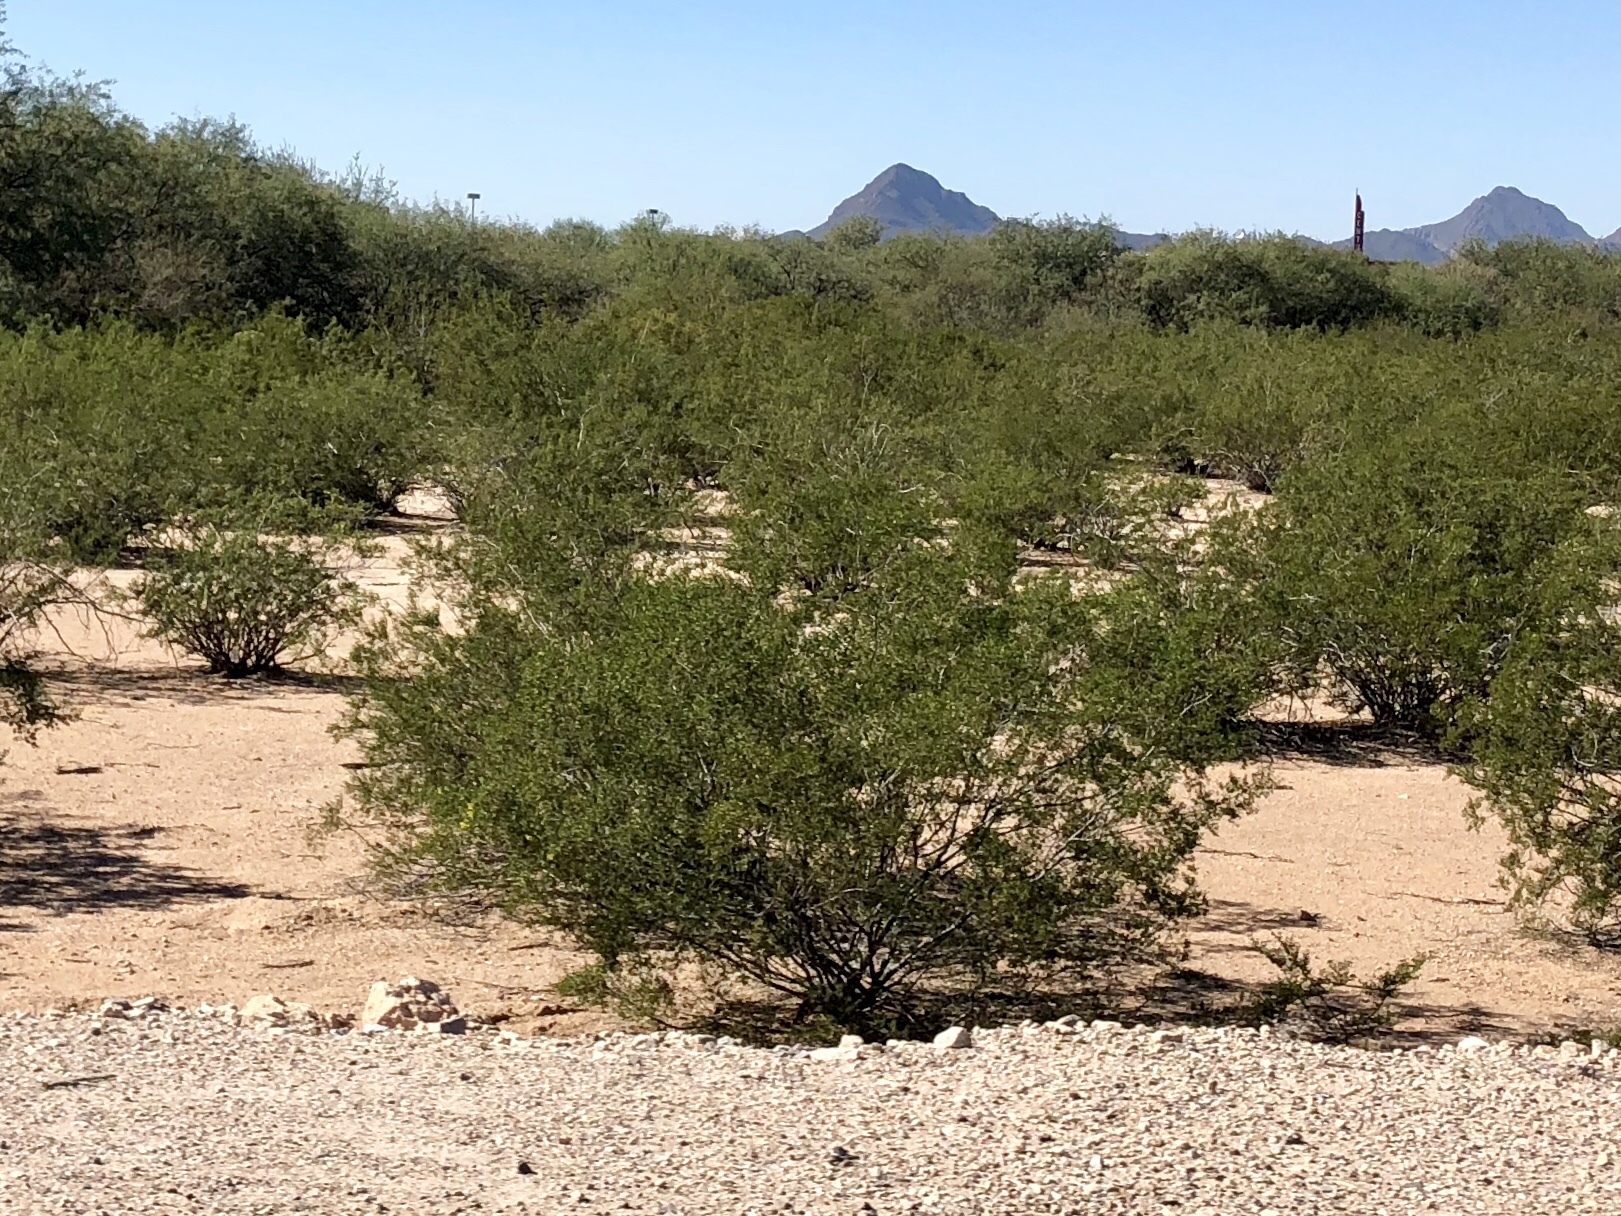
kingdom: Plantae
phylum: Tracheophyta
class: Magnoliopsida
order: Zygophyllales
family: Zygophyllaceae
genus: Larrea
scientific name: Larrea tridentata
